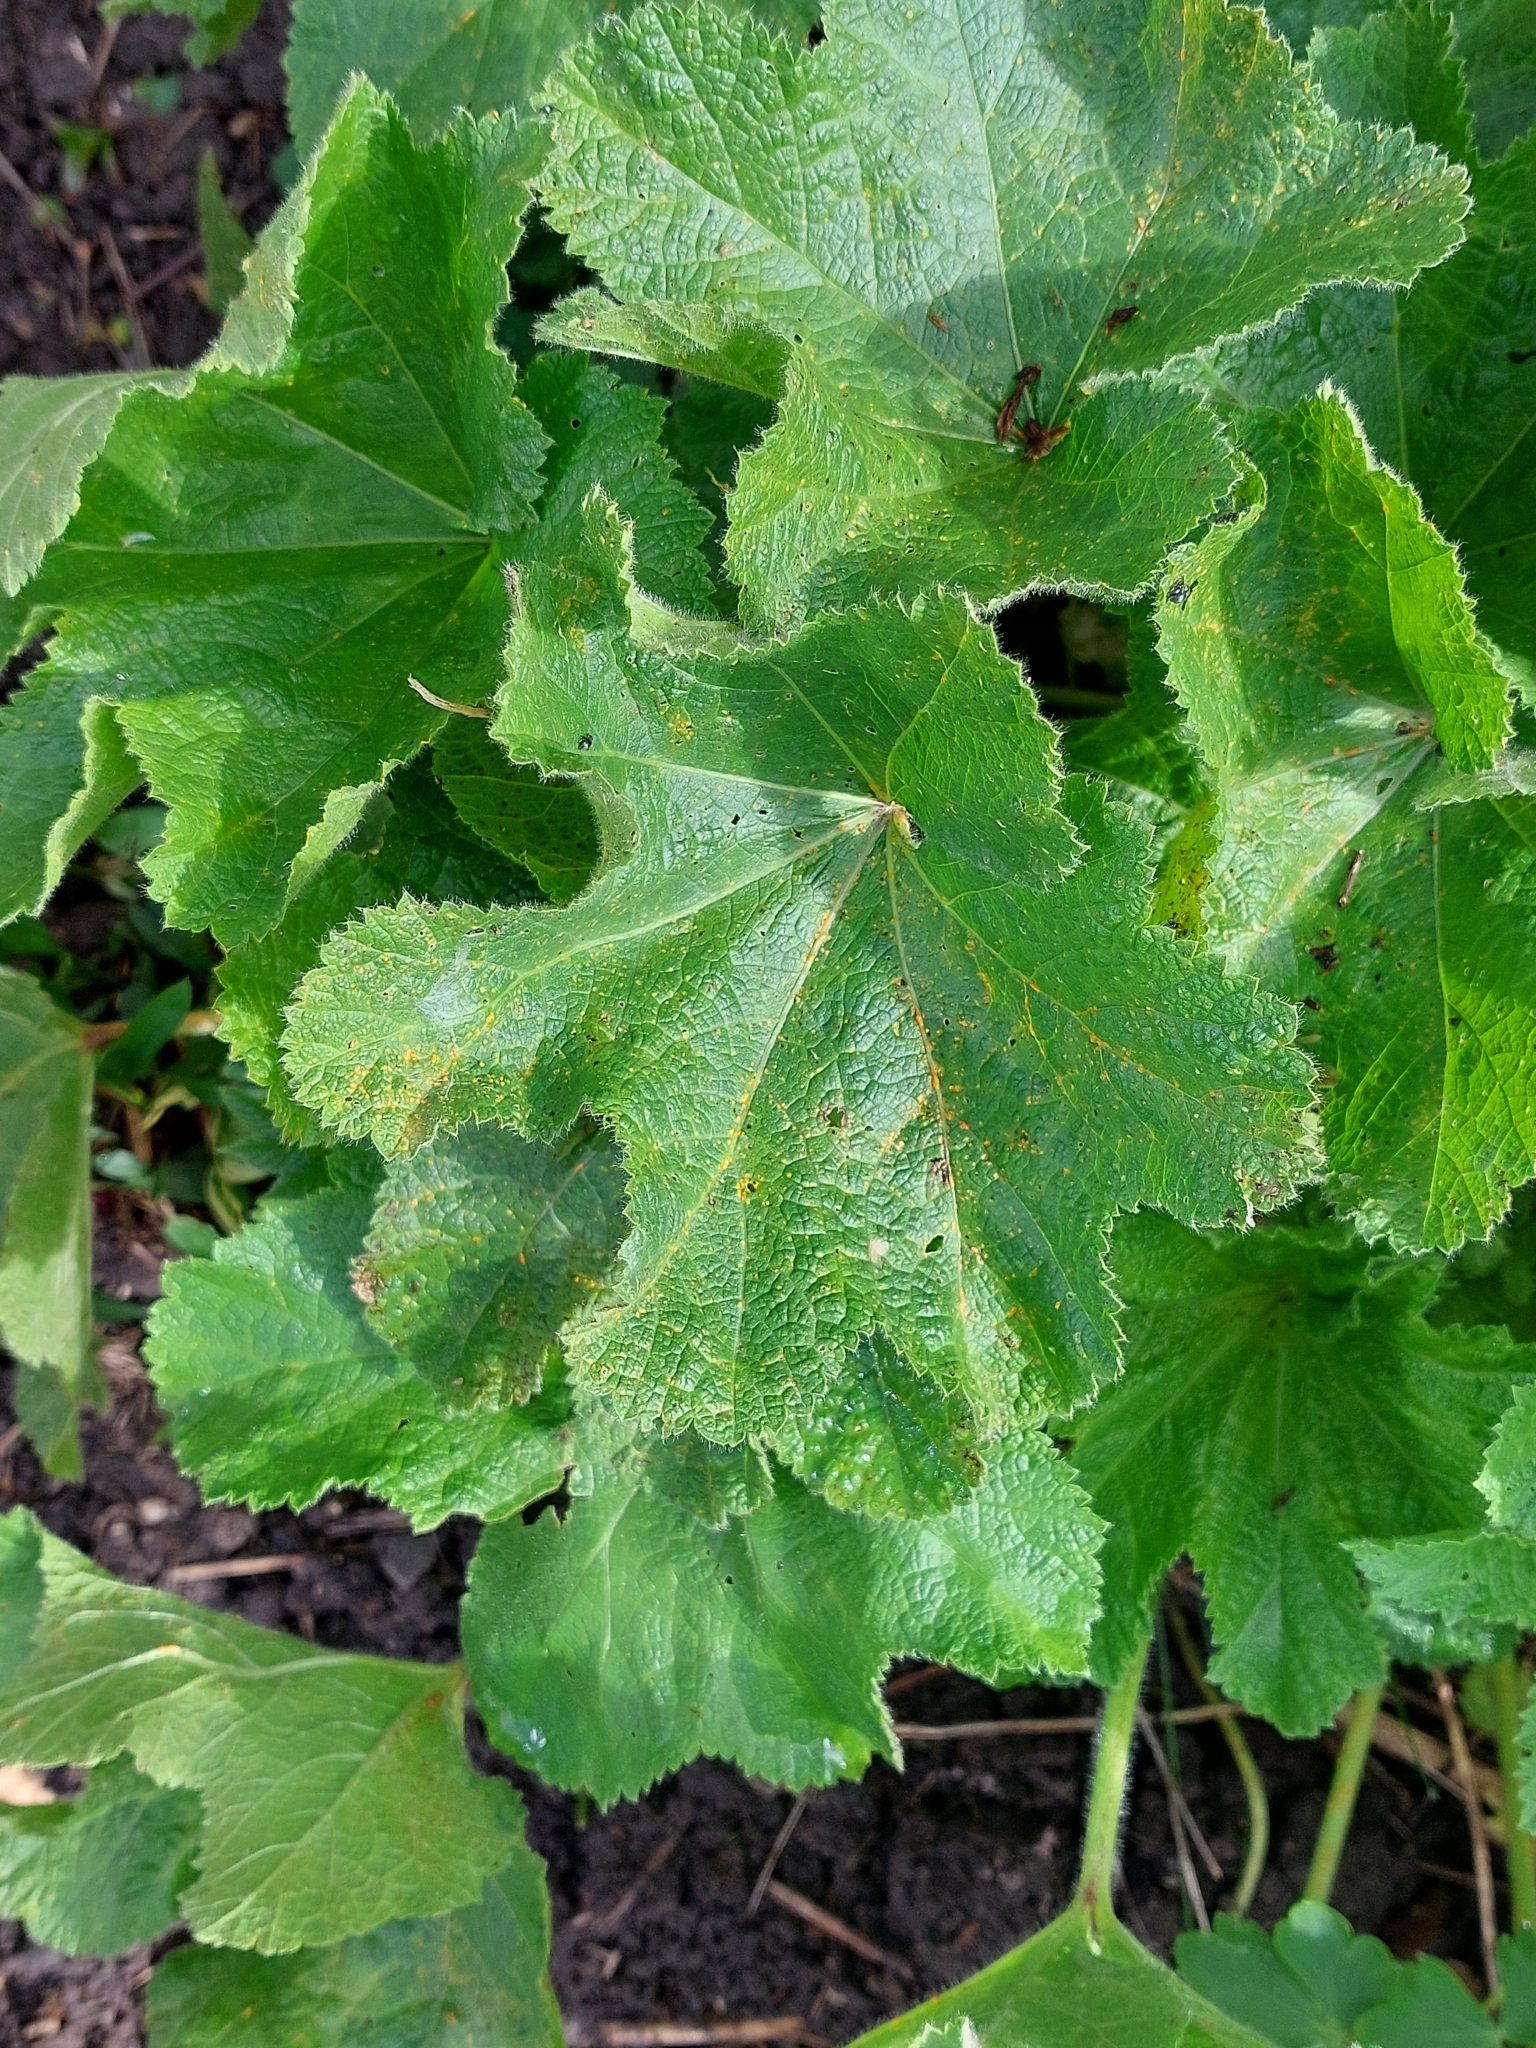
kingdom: Fungi
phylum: Basidiomycota
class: Pucciniomycetes
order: Pucciniales
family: Pucciniaceae
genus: Puccinia
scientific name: Puccinia malvacearum
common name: Hollyhock rust
